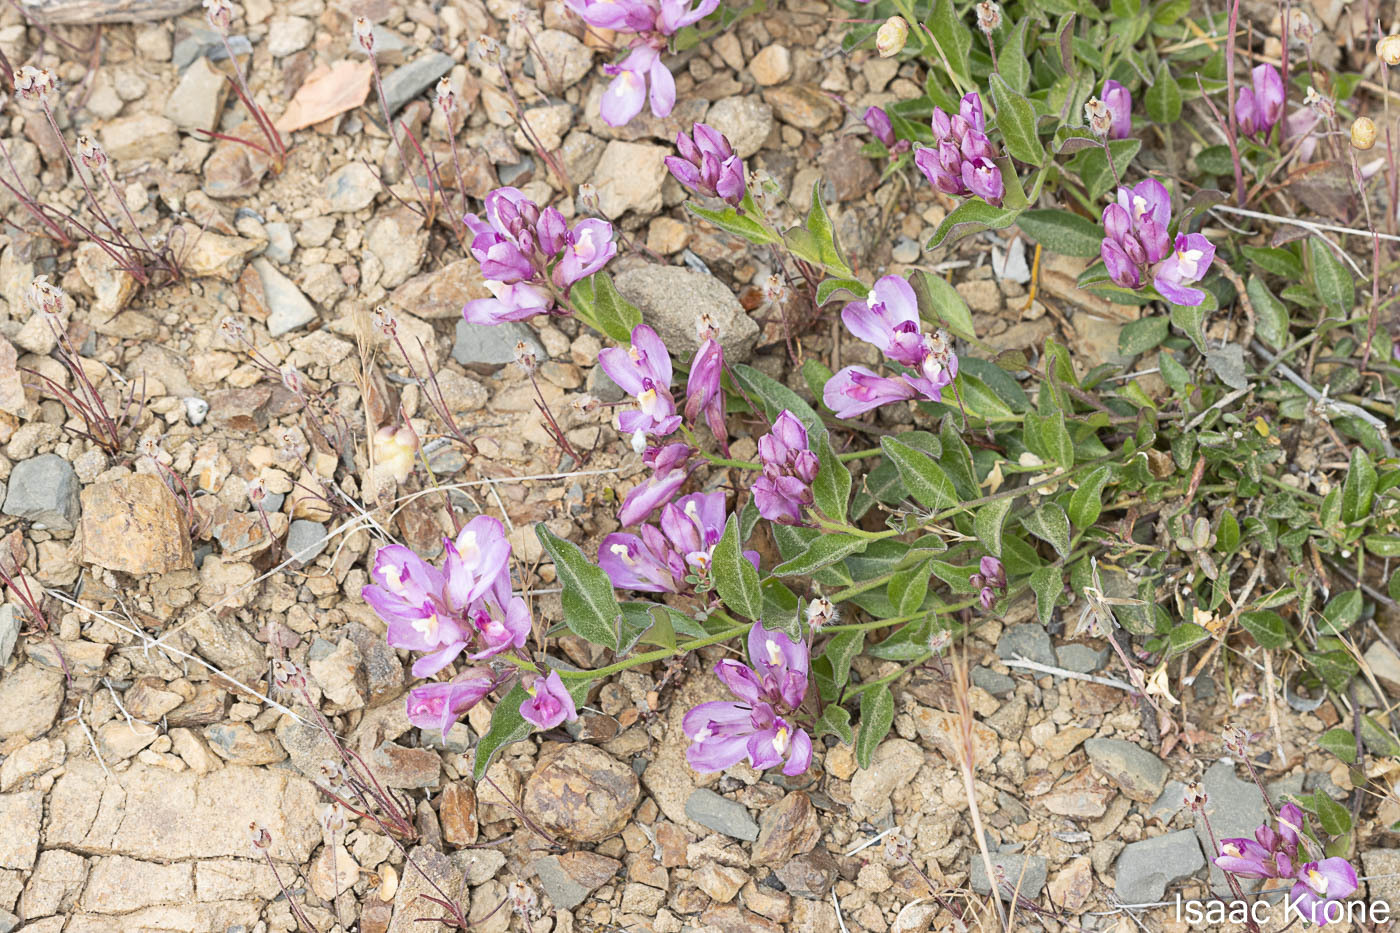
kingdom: Plantae
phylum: Tracheophyta
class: Magnoliopsida
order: Fabales
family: Polygalaceae
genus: Rhinotropis
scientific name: Rhinotropis californica
